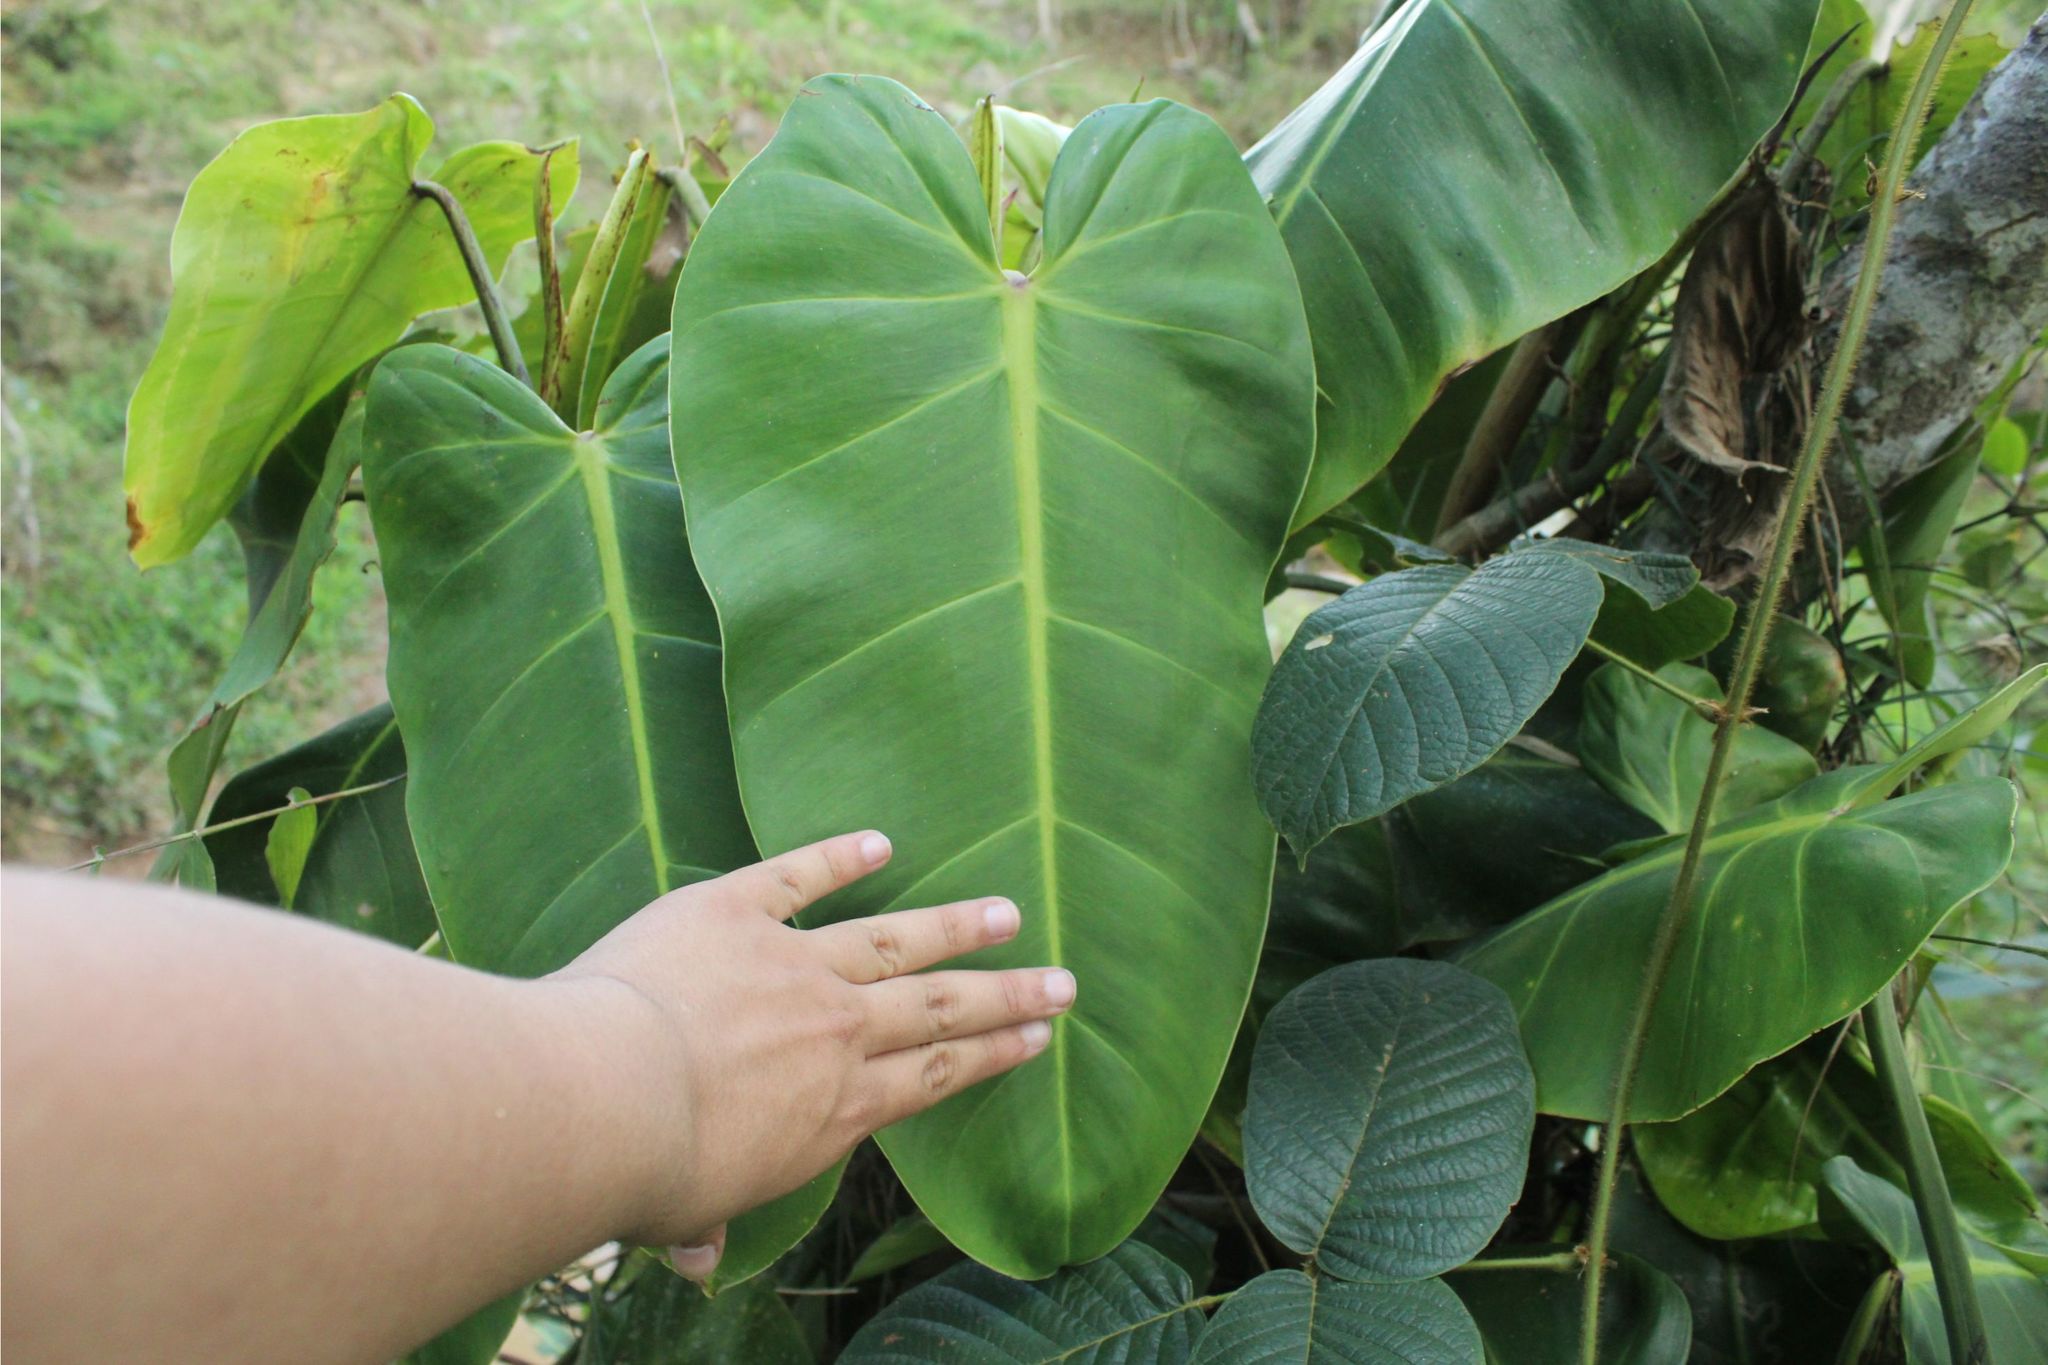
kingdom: Plantae
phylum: Tracheophyta
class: Liliopsida
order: Alismatales
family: Araceae
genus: Philodendron
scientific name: Philodendron
